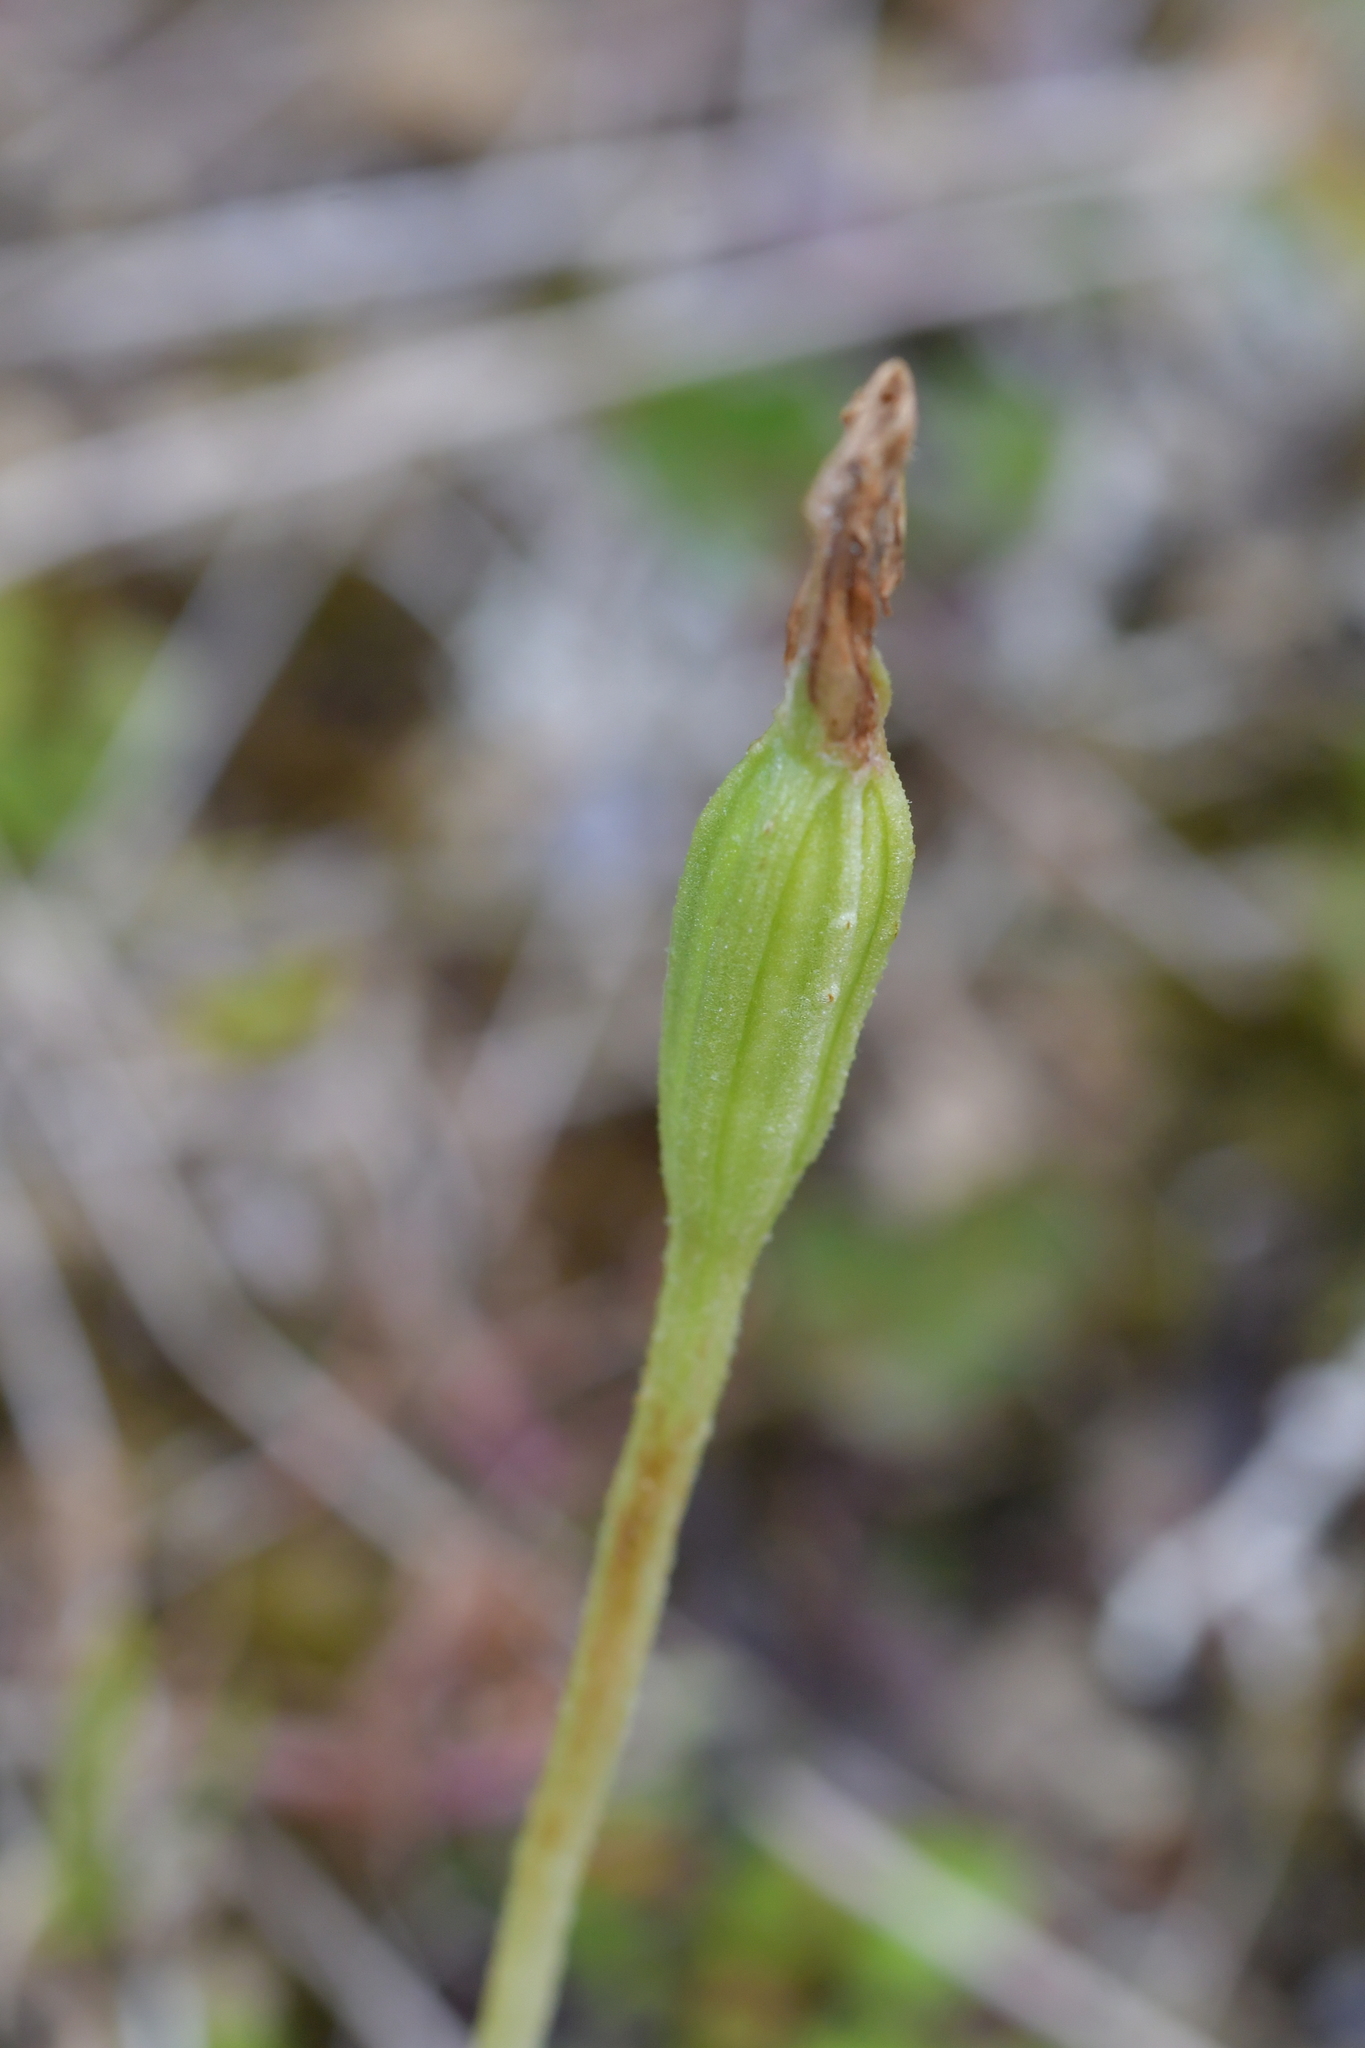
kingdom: Plantae
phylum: Tracheophyta
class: Liliopsida
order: Asparagales
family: Orchidaceae
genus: Pterostylis
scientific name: Pterostylis foliata
